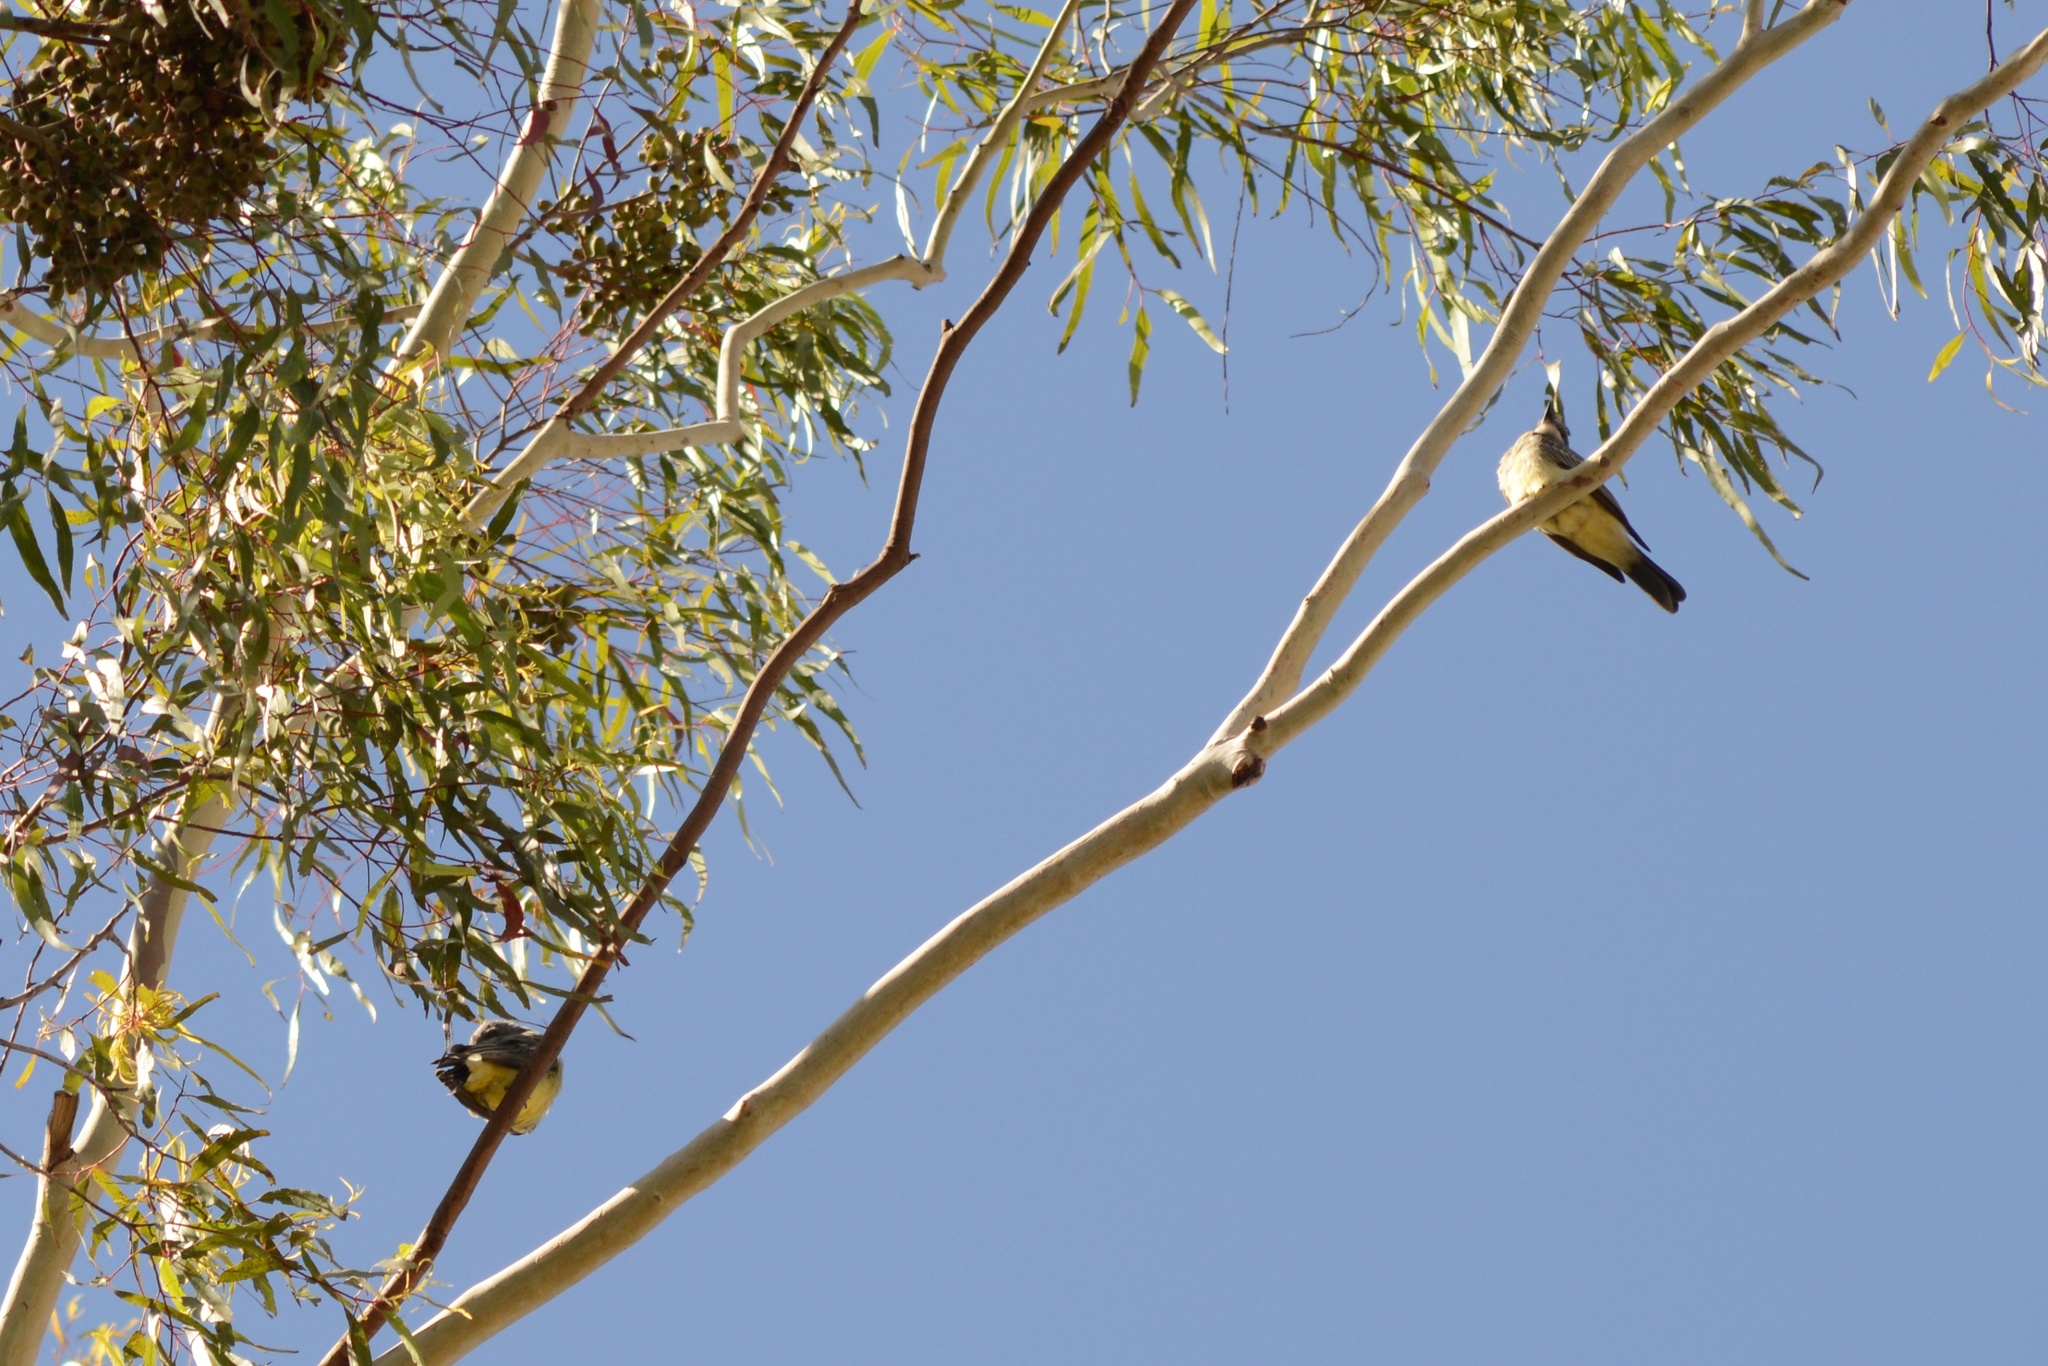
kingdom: Animalia
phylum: Chordata
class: Aves
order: Passeriformes
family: Tyrannidae
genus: Tyrannus
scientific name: Tyrannus verticalis
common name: Western kingbird
